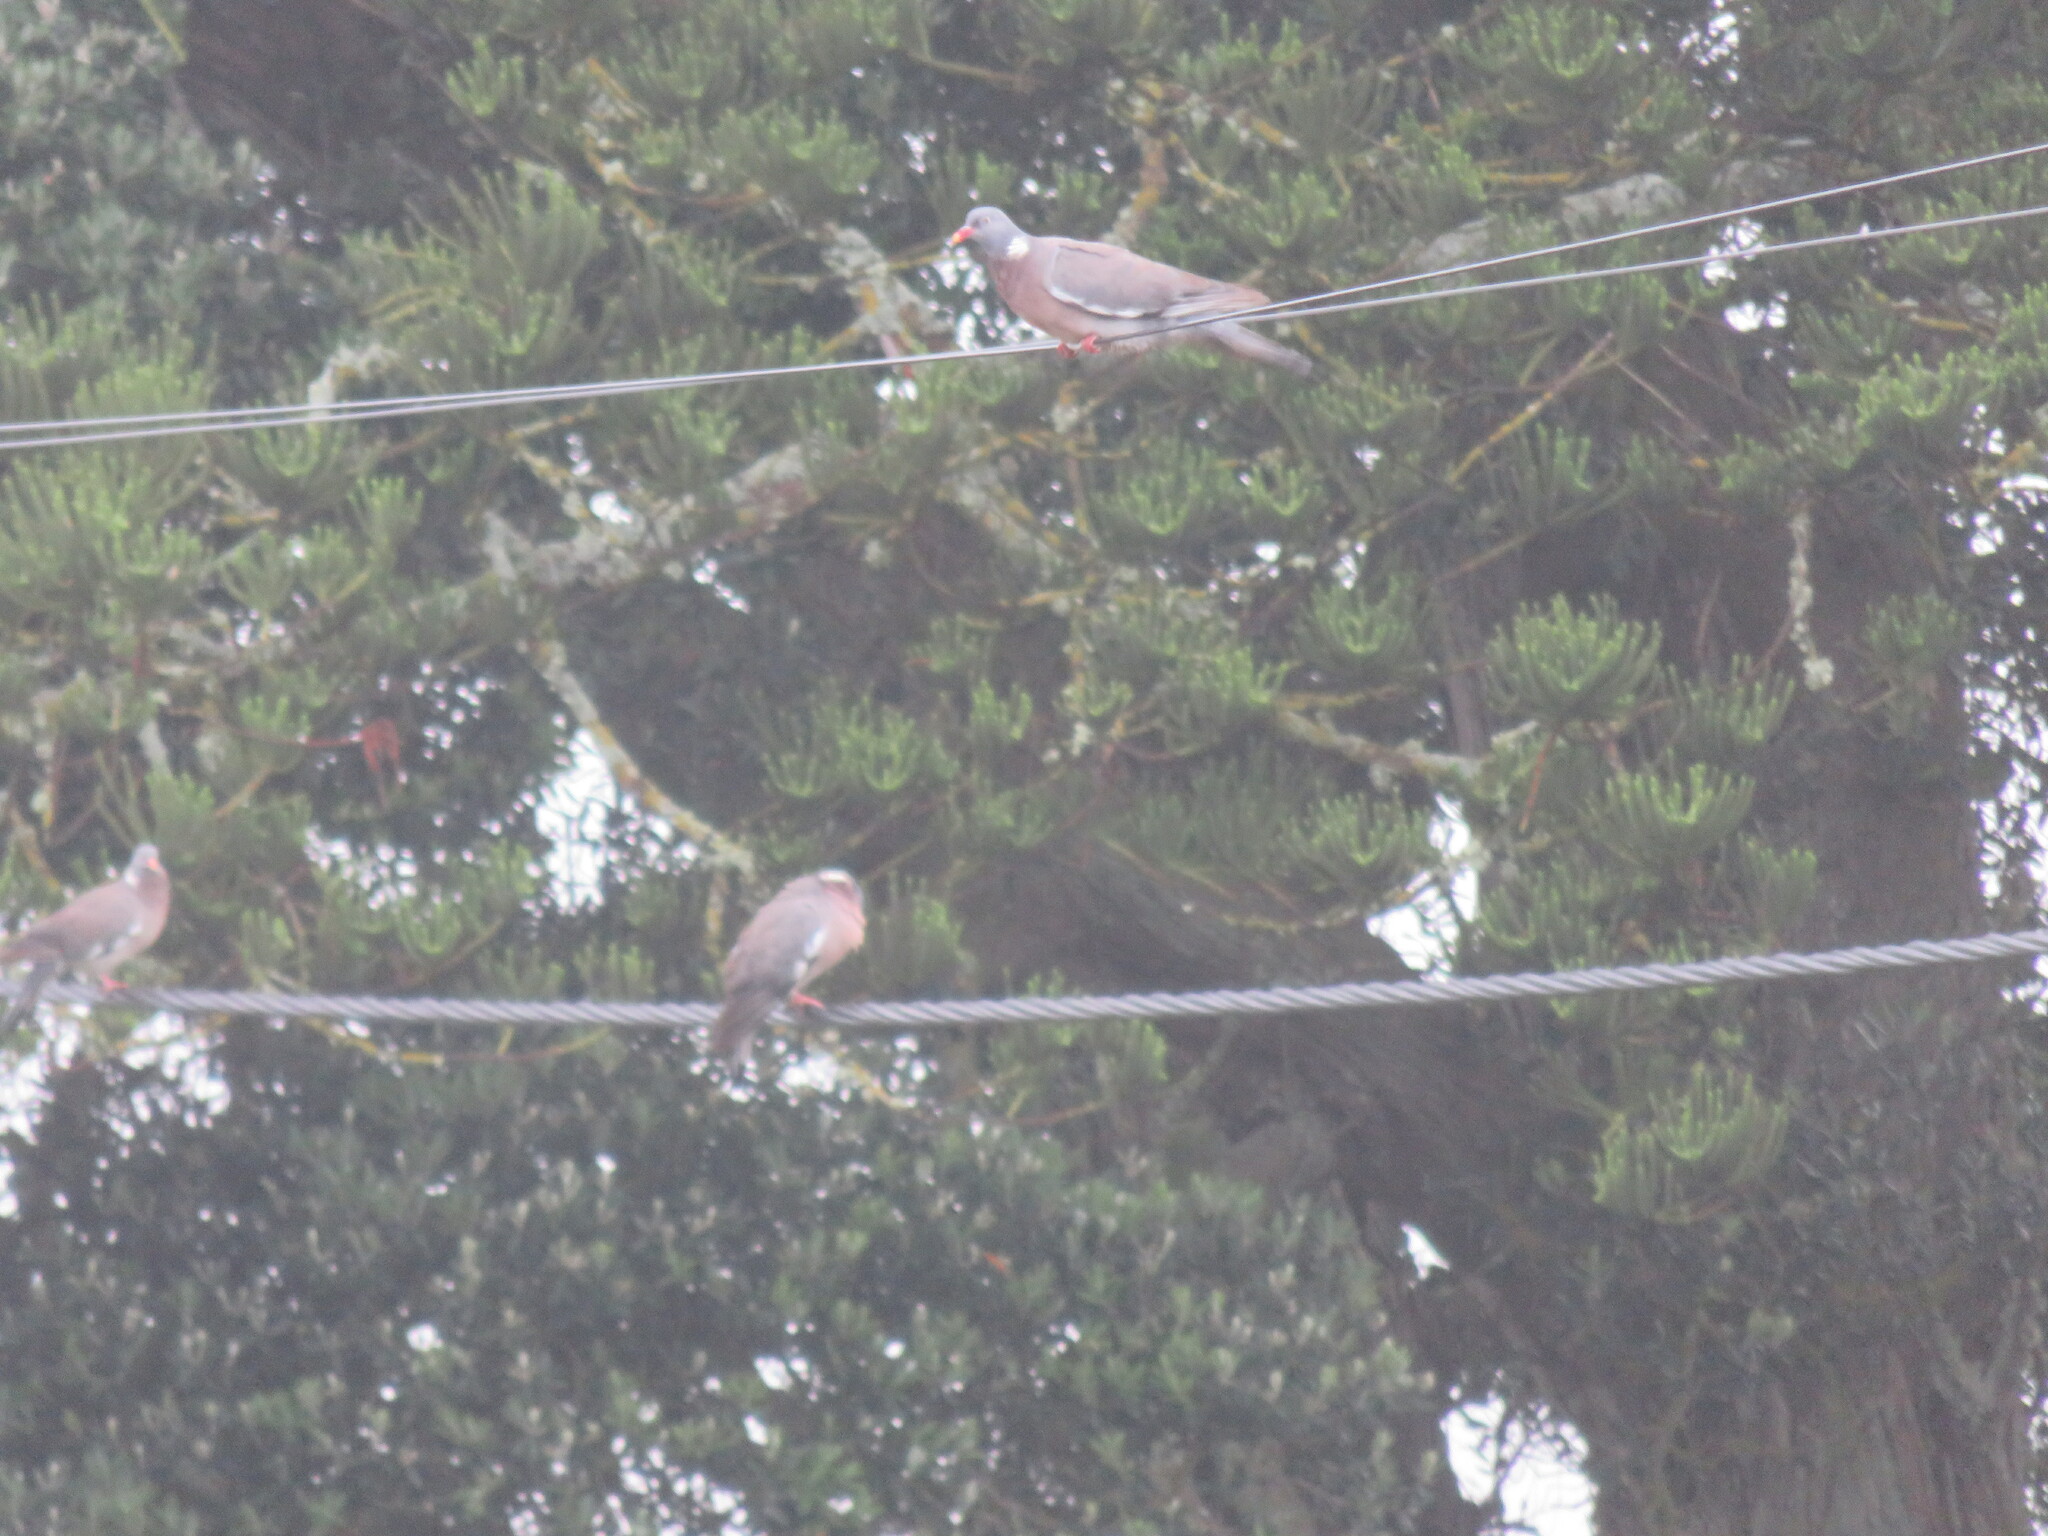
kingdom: Animalia
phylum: Chordata
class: Aves
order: Columbiformes
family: Columbidae
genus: Columba
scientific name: Columba palumbus
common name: Common wood pigeon
